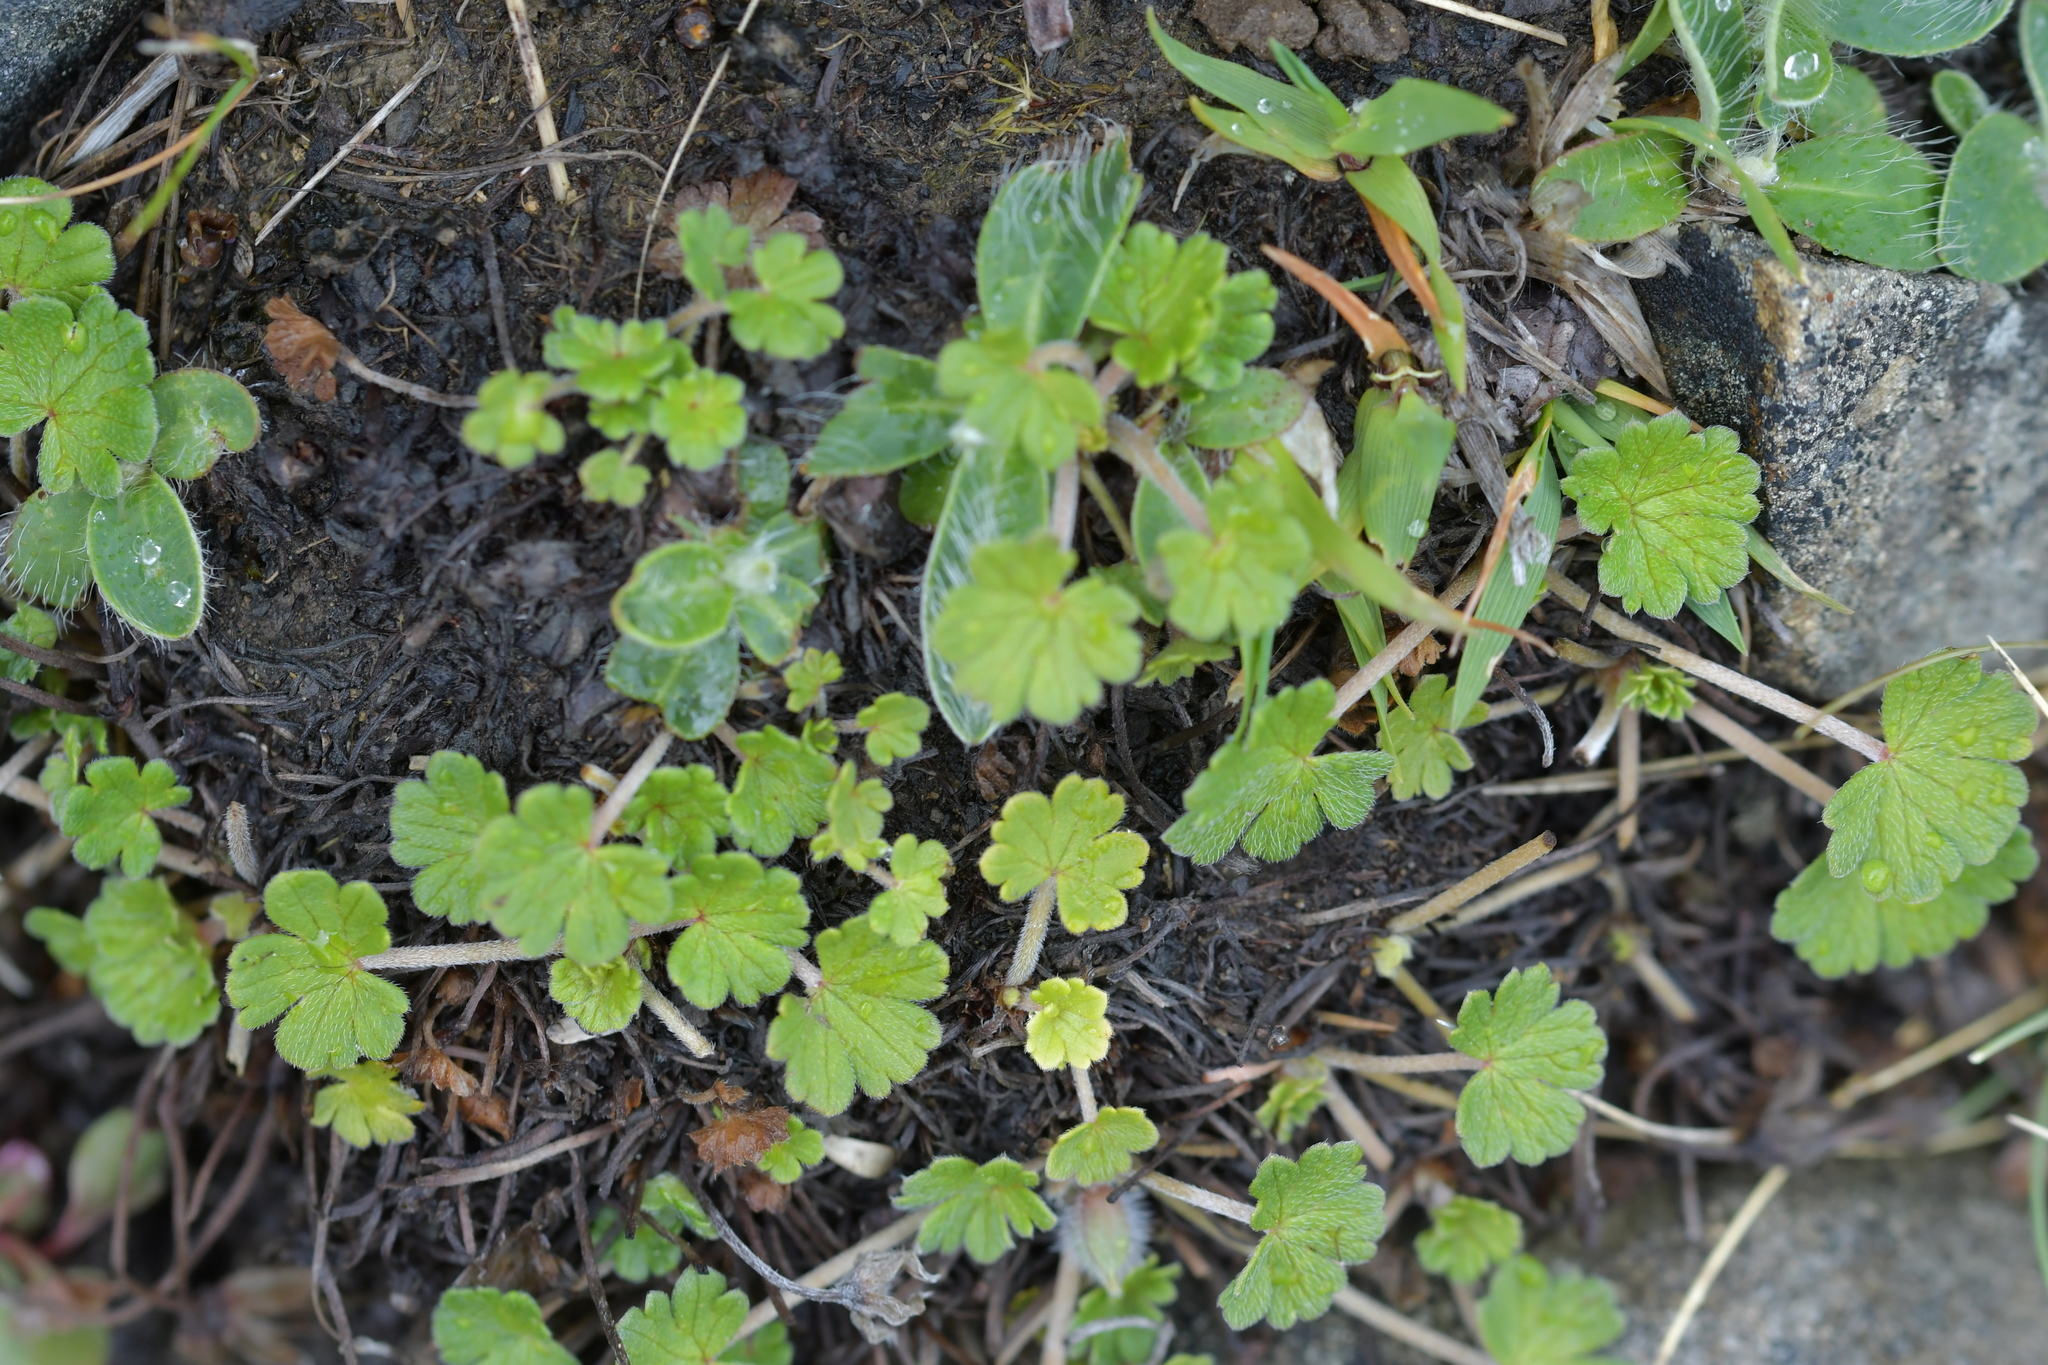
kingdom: Plantae
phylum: Tracheophyta
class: Magnoliopsida
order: Geraniales
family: Geraniaceae
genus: Geranium
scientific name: Geranium brevicaule
